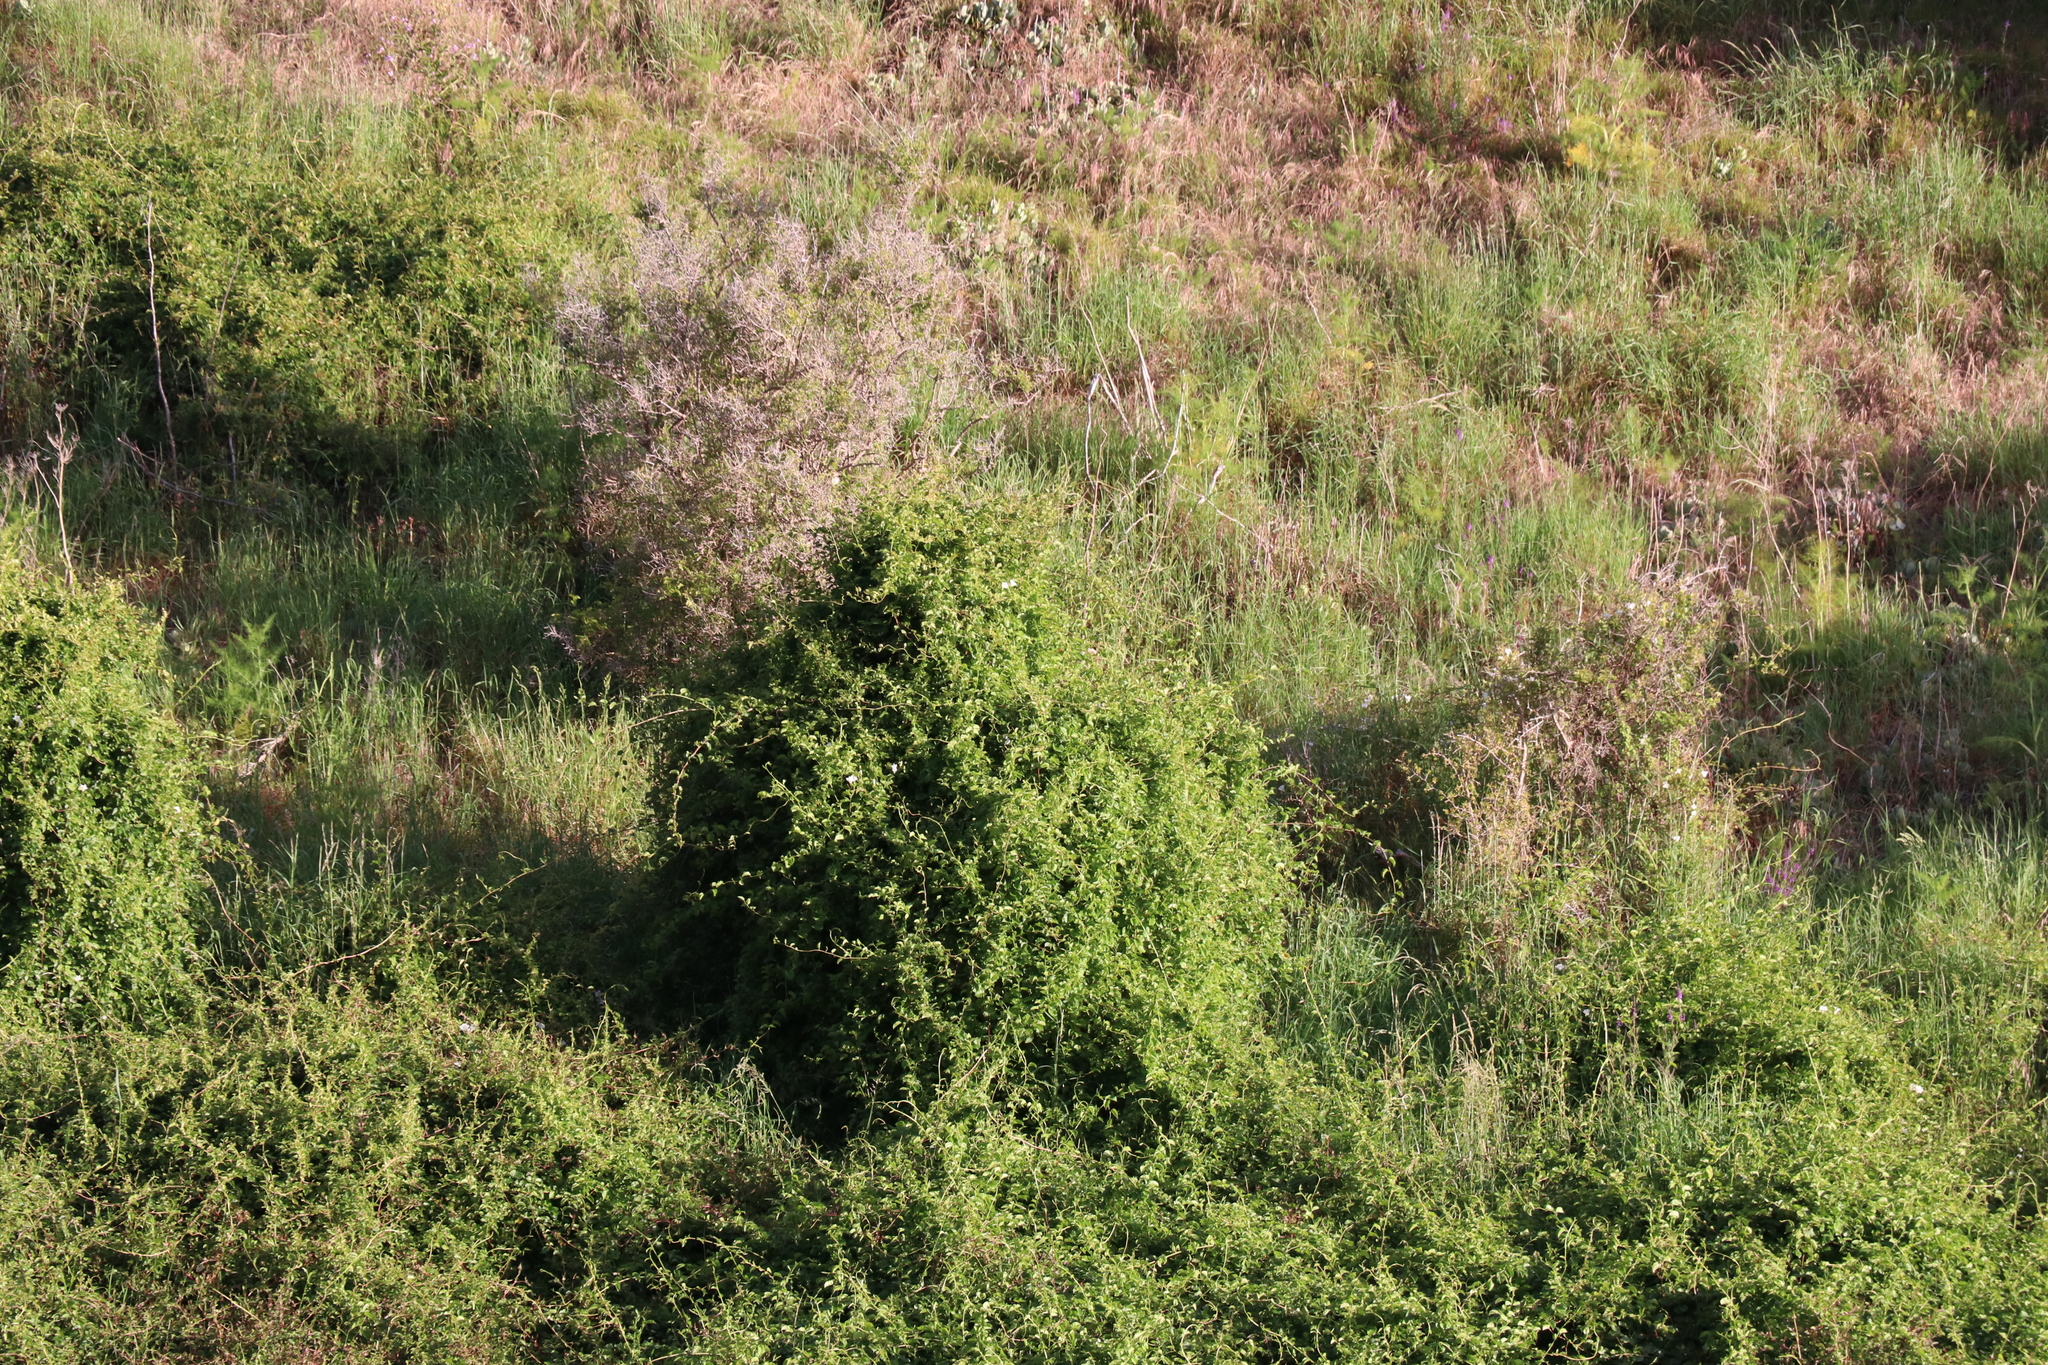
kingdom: Plantae
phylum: Tracheophyta
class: Magnoliopsida
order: Caryophyllales
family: Polygonaceae
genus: Muehlenbeckia
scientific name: Muehlenbeckia complexa
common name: Wireplant
